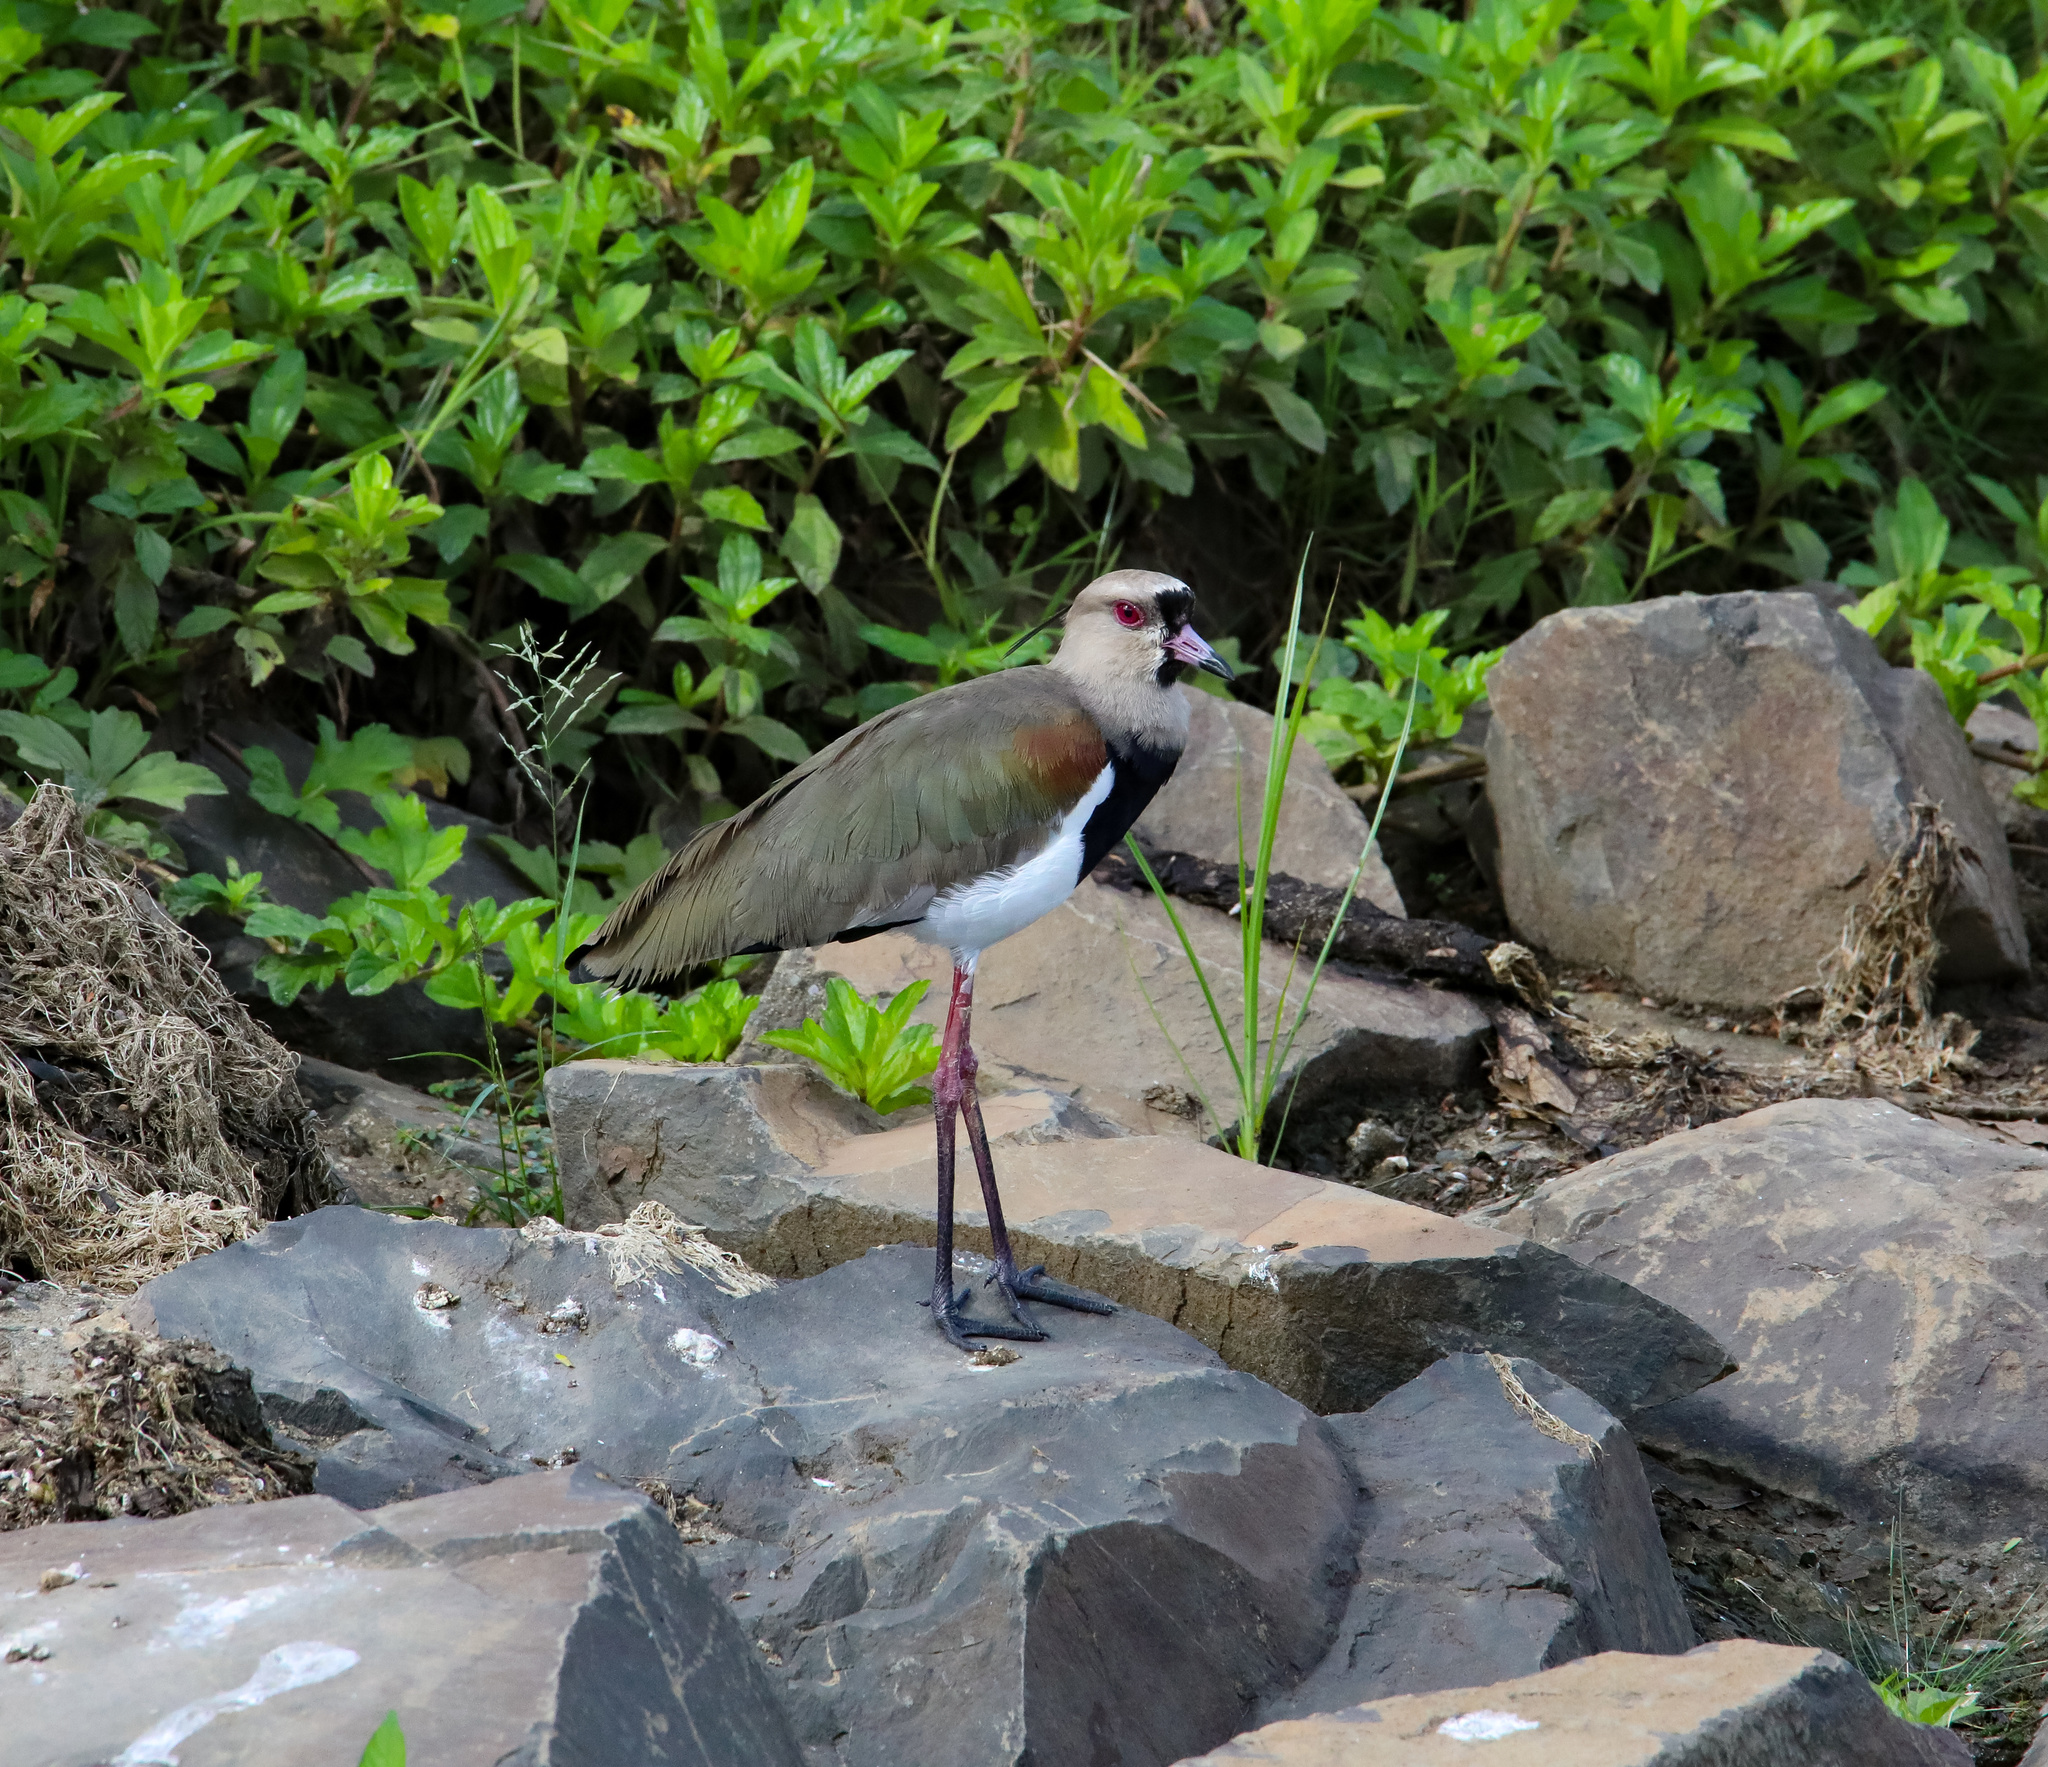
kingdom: Animalia
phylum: Chordata
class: Aves
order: Charadriiformes
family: Charadriidae
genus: Vanellus
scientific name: Vanellus chilensis
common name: Southern lapwing
